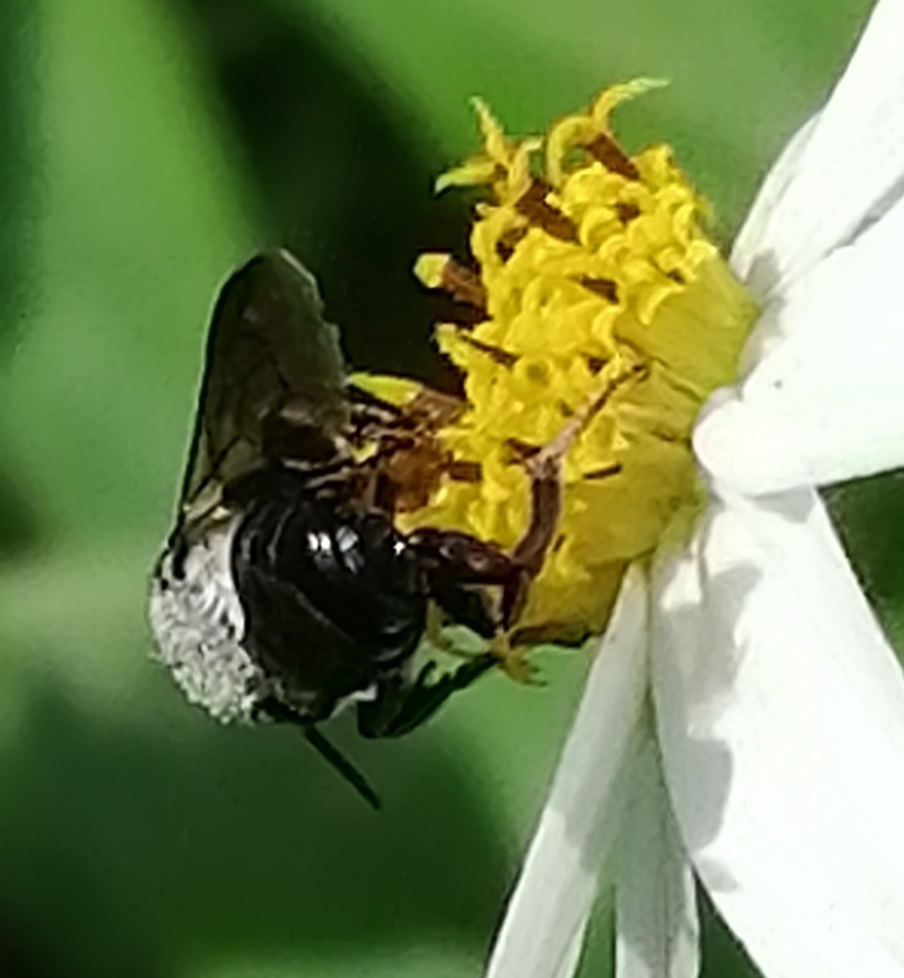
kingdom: Animalia
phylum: Arthropoda
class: Insecta
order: Hymenoptera
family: Megachilidae
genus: Megachile
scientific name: Megachile disjuncta
